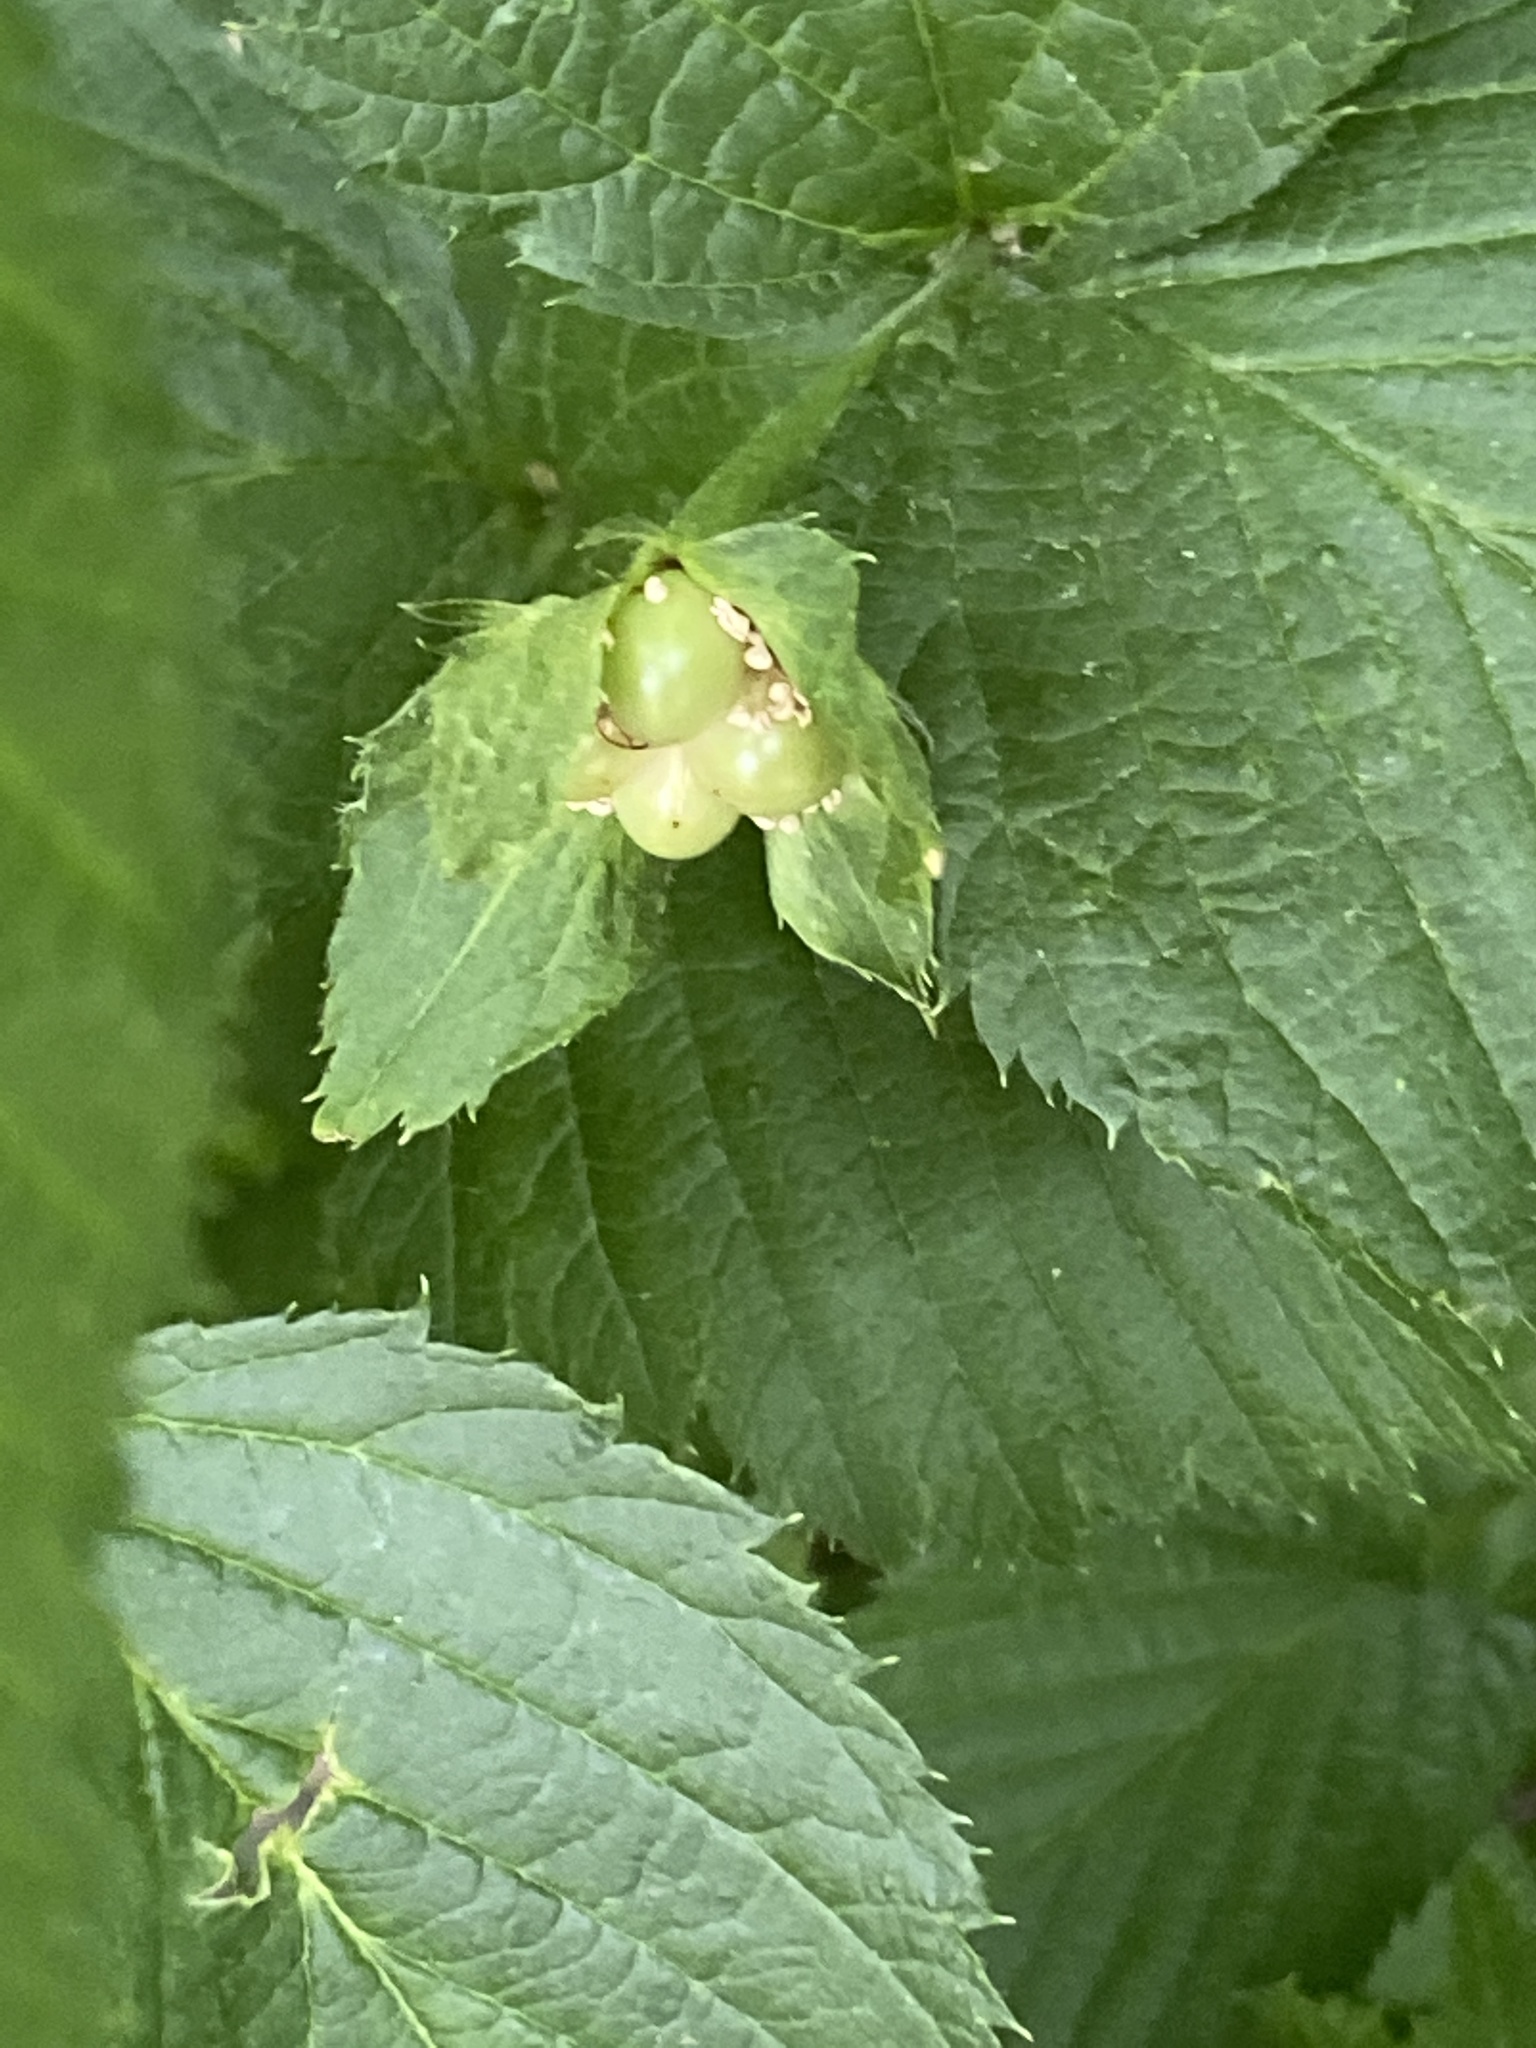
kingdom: Plantae
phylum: Tracheophyta
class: Magnoliopsida
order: Rosales
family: Rosaceae
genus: Rhodotypos
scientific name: Rhodotypos scandens
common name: Jetbead
